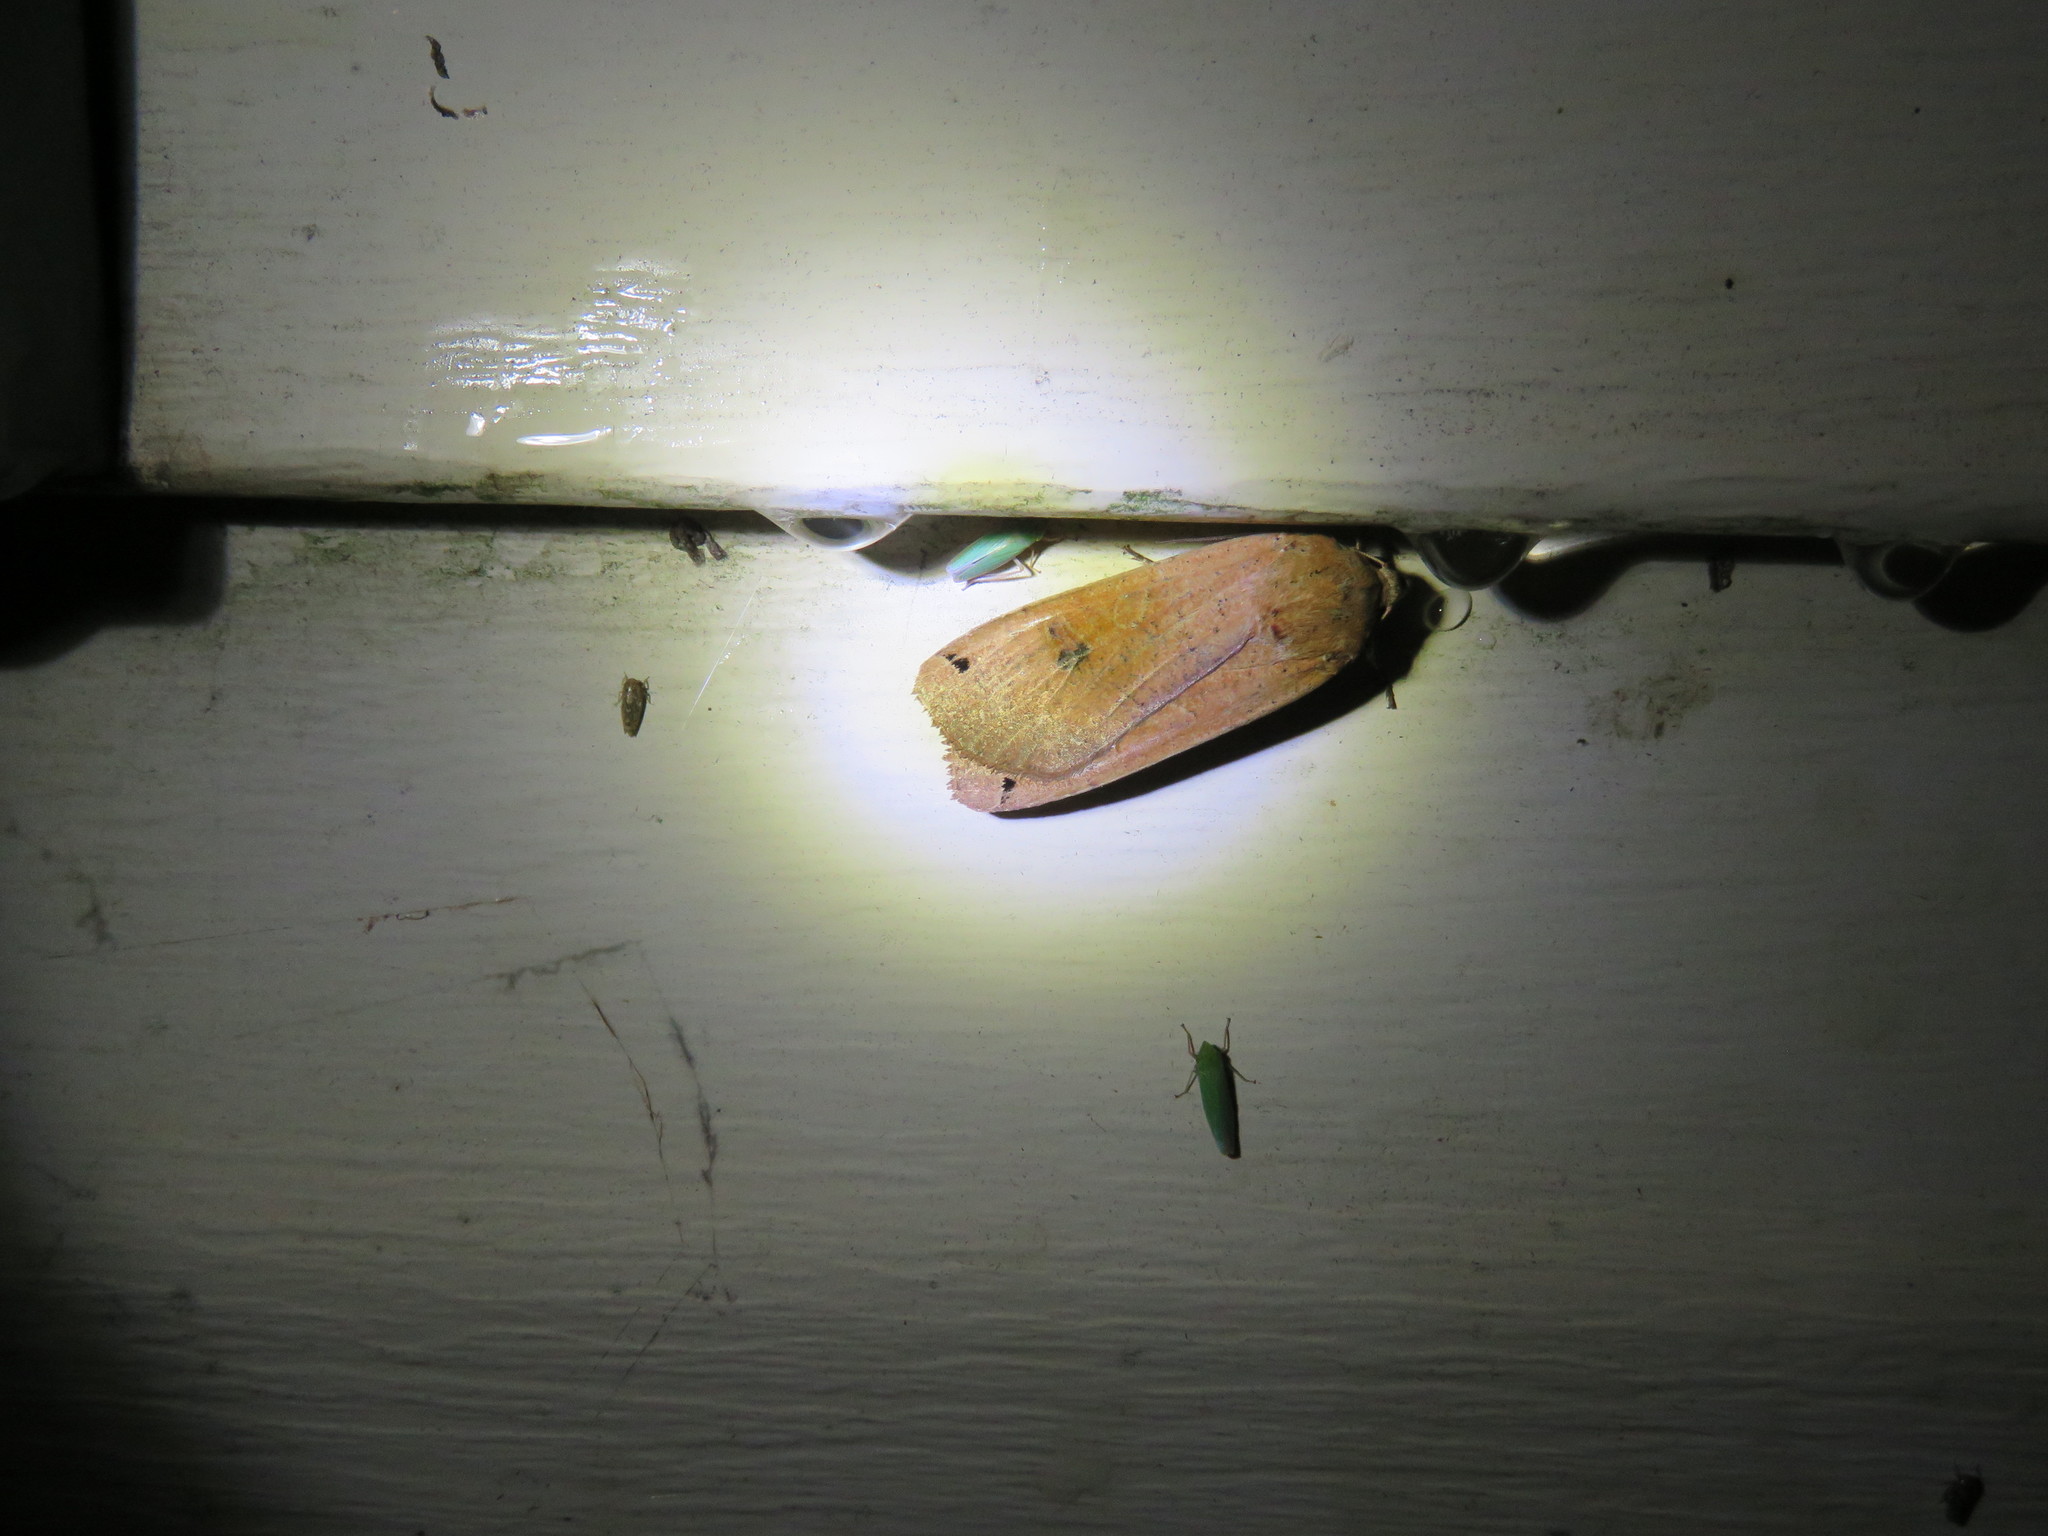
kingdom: Animalia
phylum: Arthropoda
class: Insecta
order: Lepidoptera
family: Noctuidae
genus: Noctua
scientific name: Noctua pronuba
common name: Large yellow underwing
